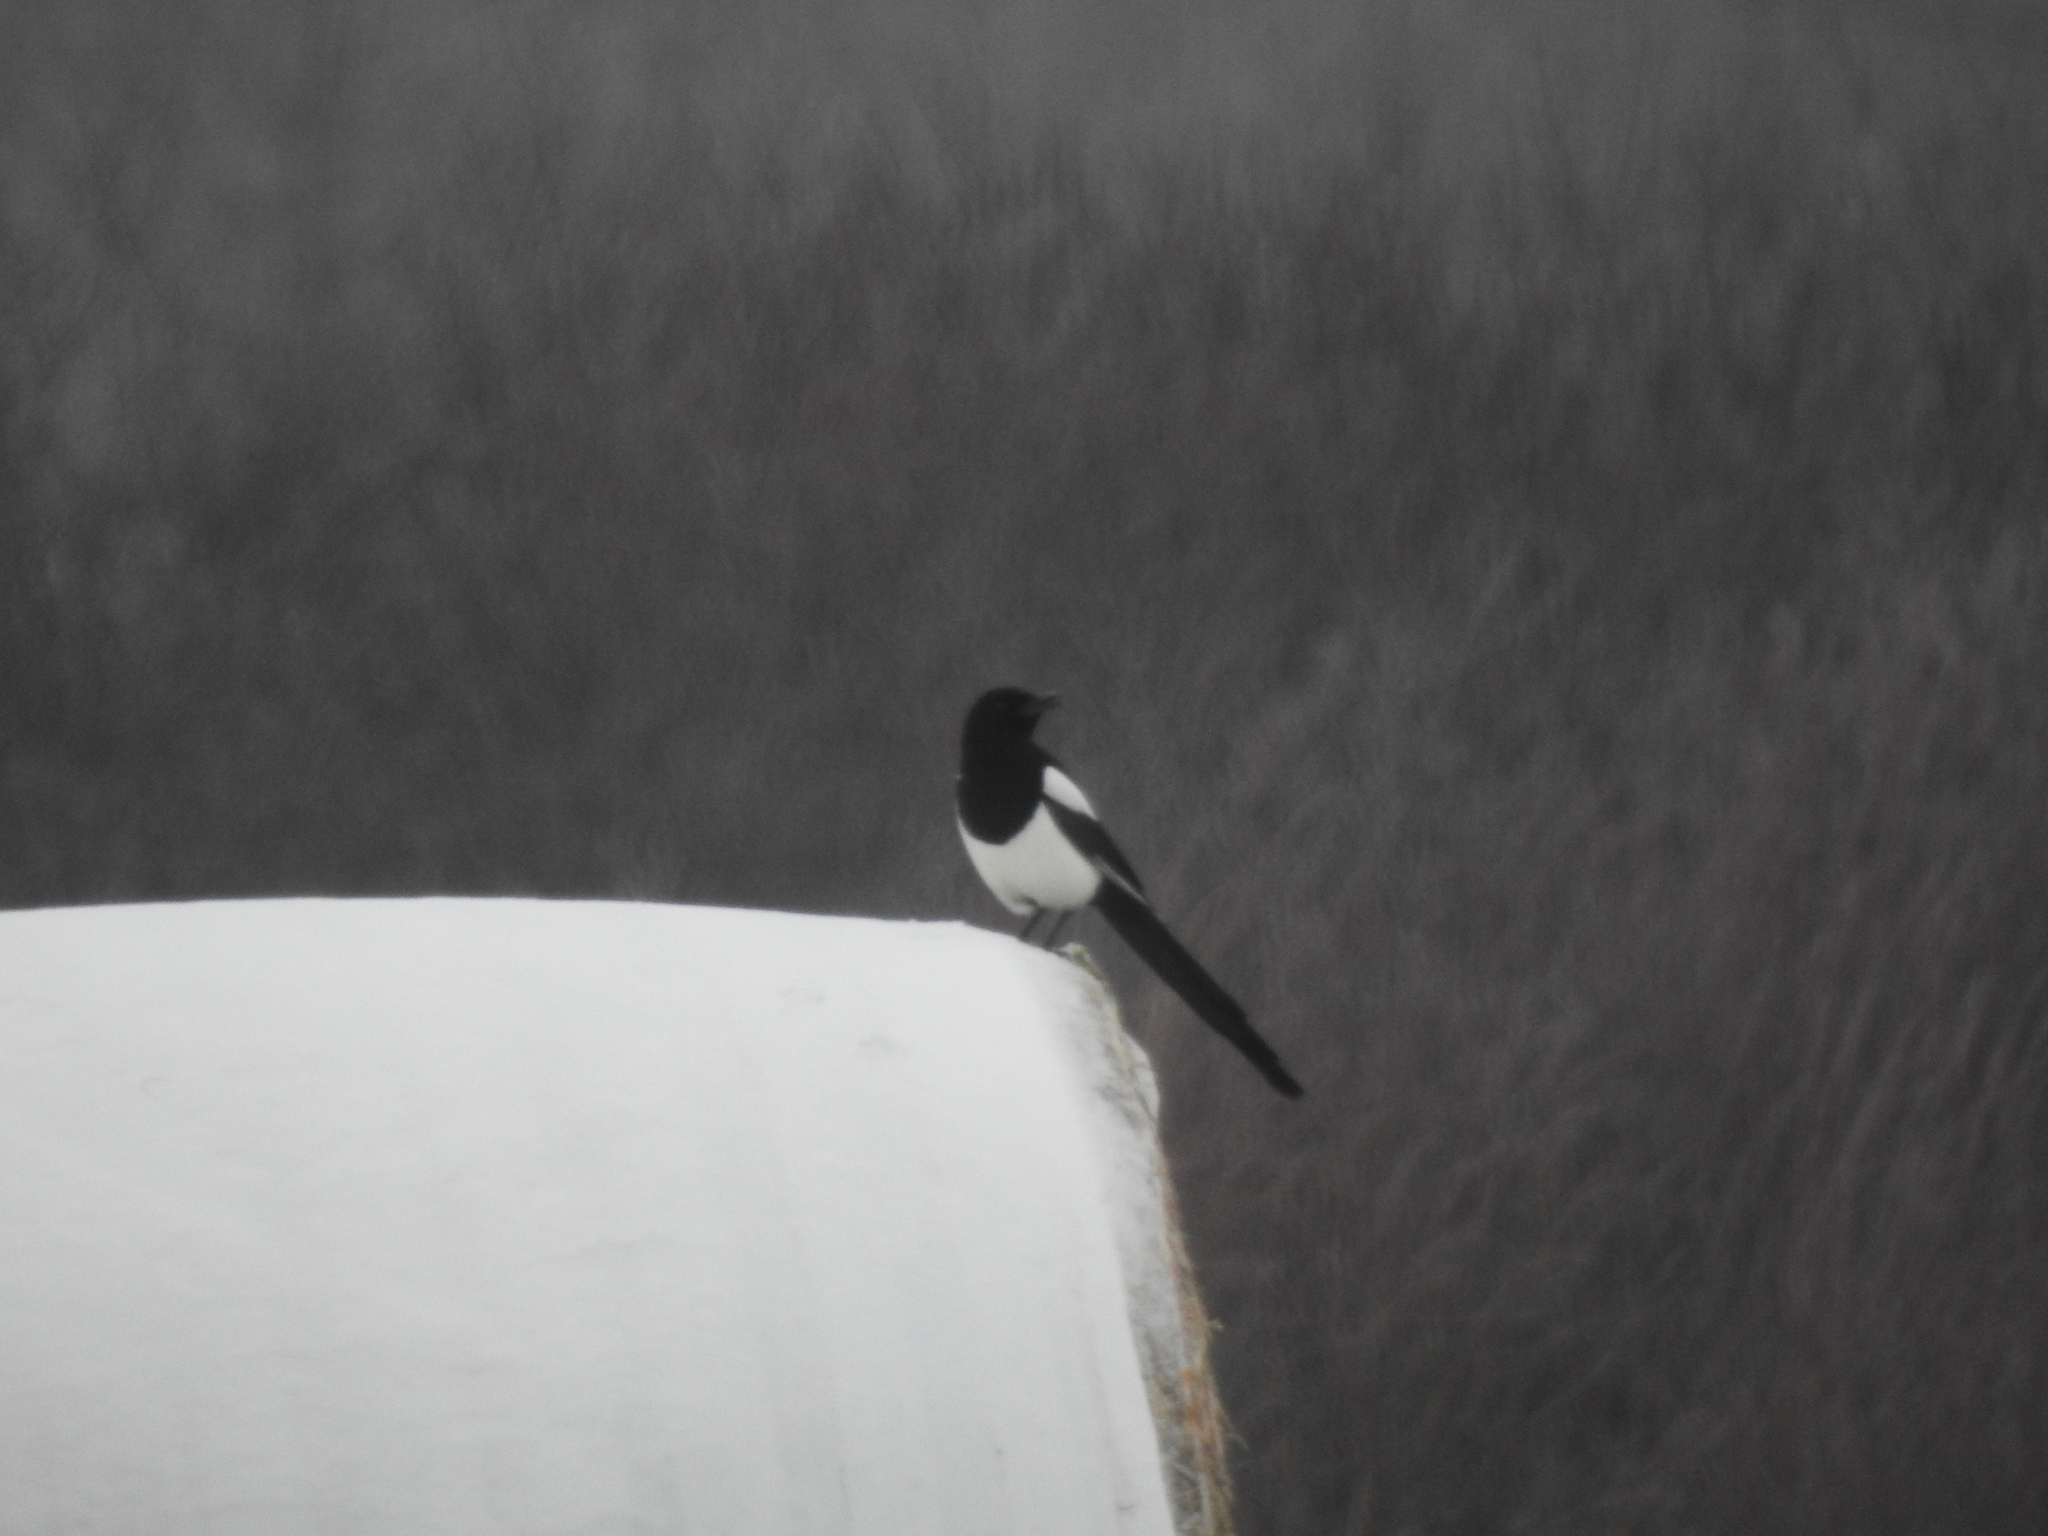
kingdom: Animalia
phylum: Chordata
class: Aves
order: Passeriformes
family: Corvidae
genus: Pica
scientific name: Pica hudsonia
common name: Black-billed magpie
